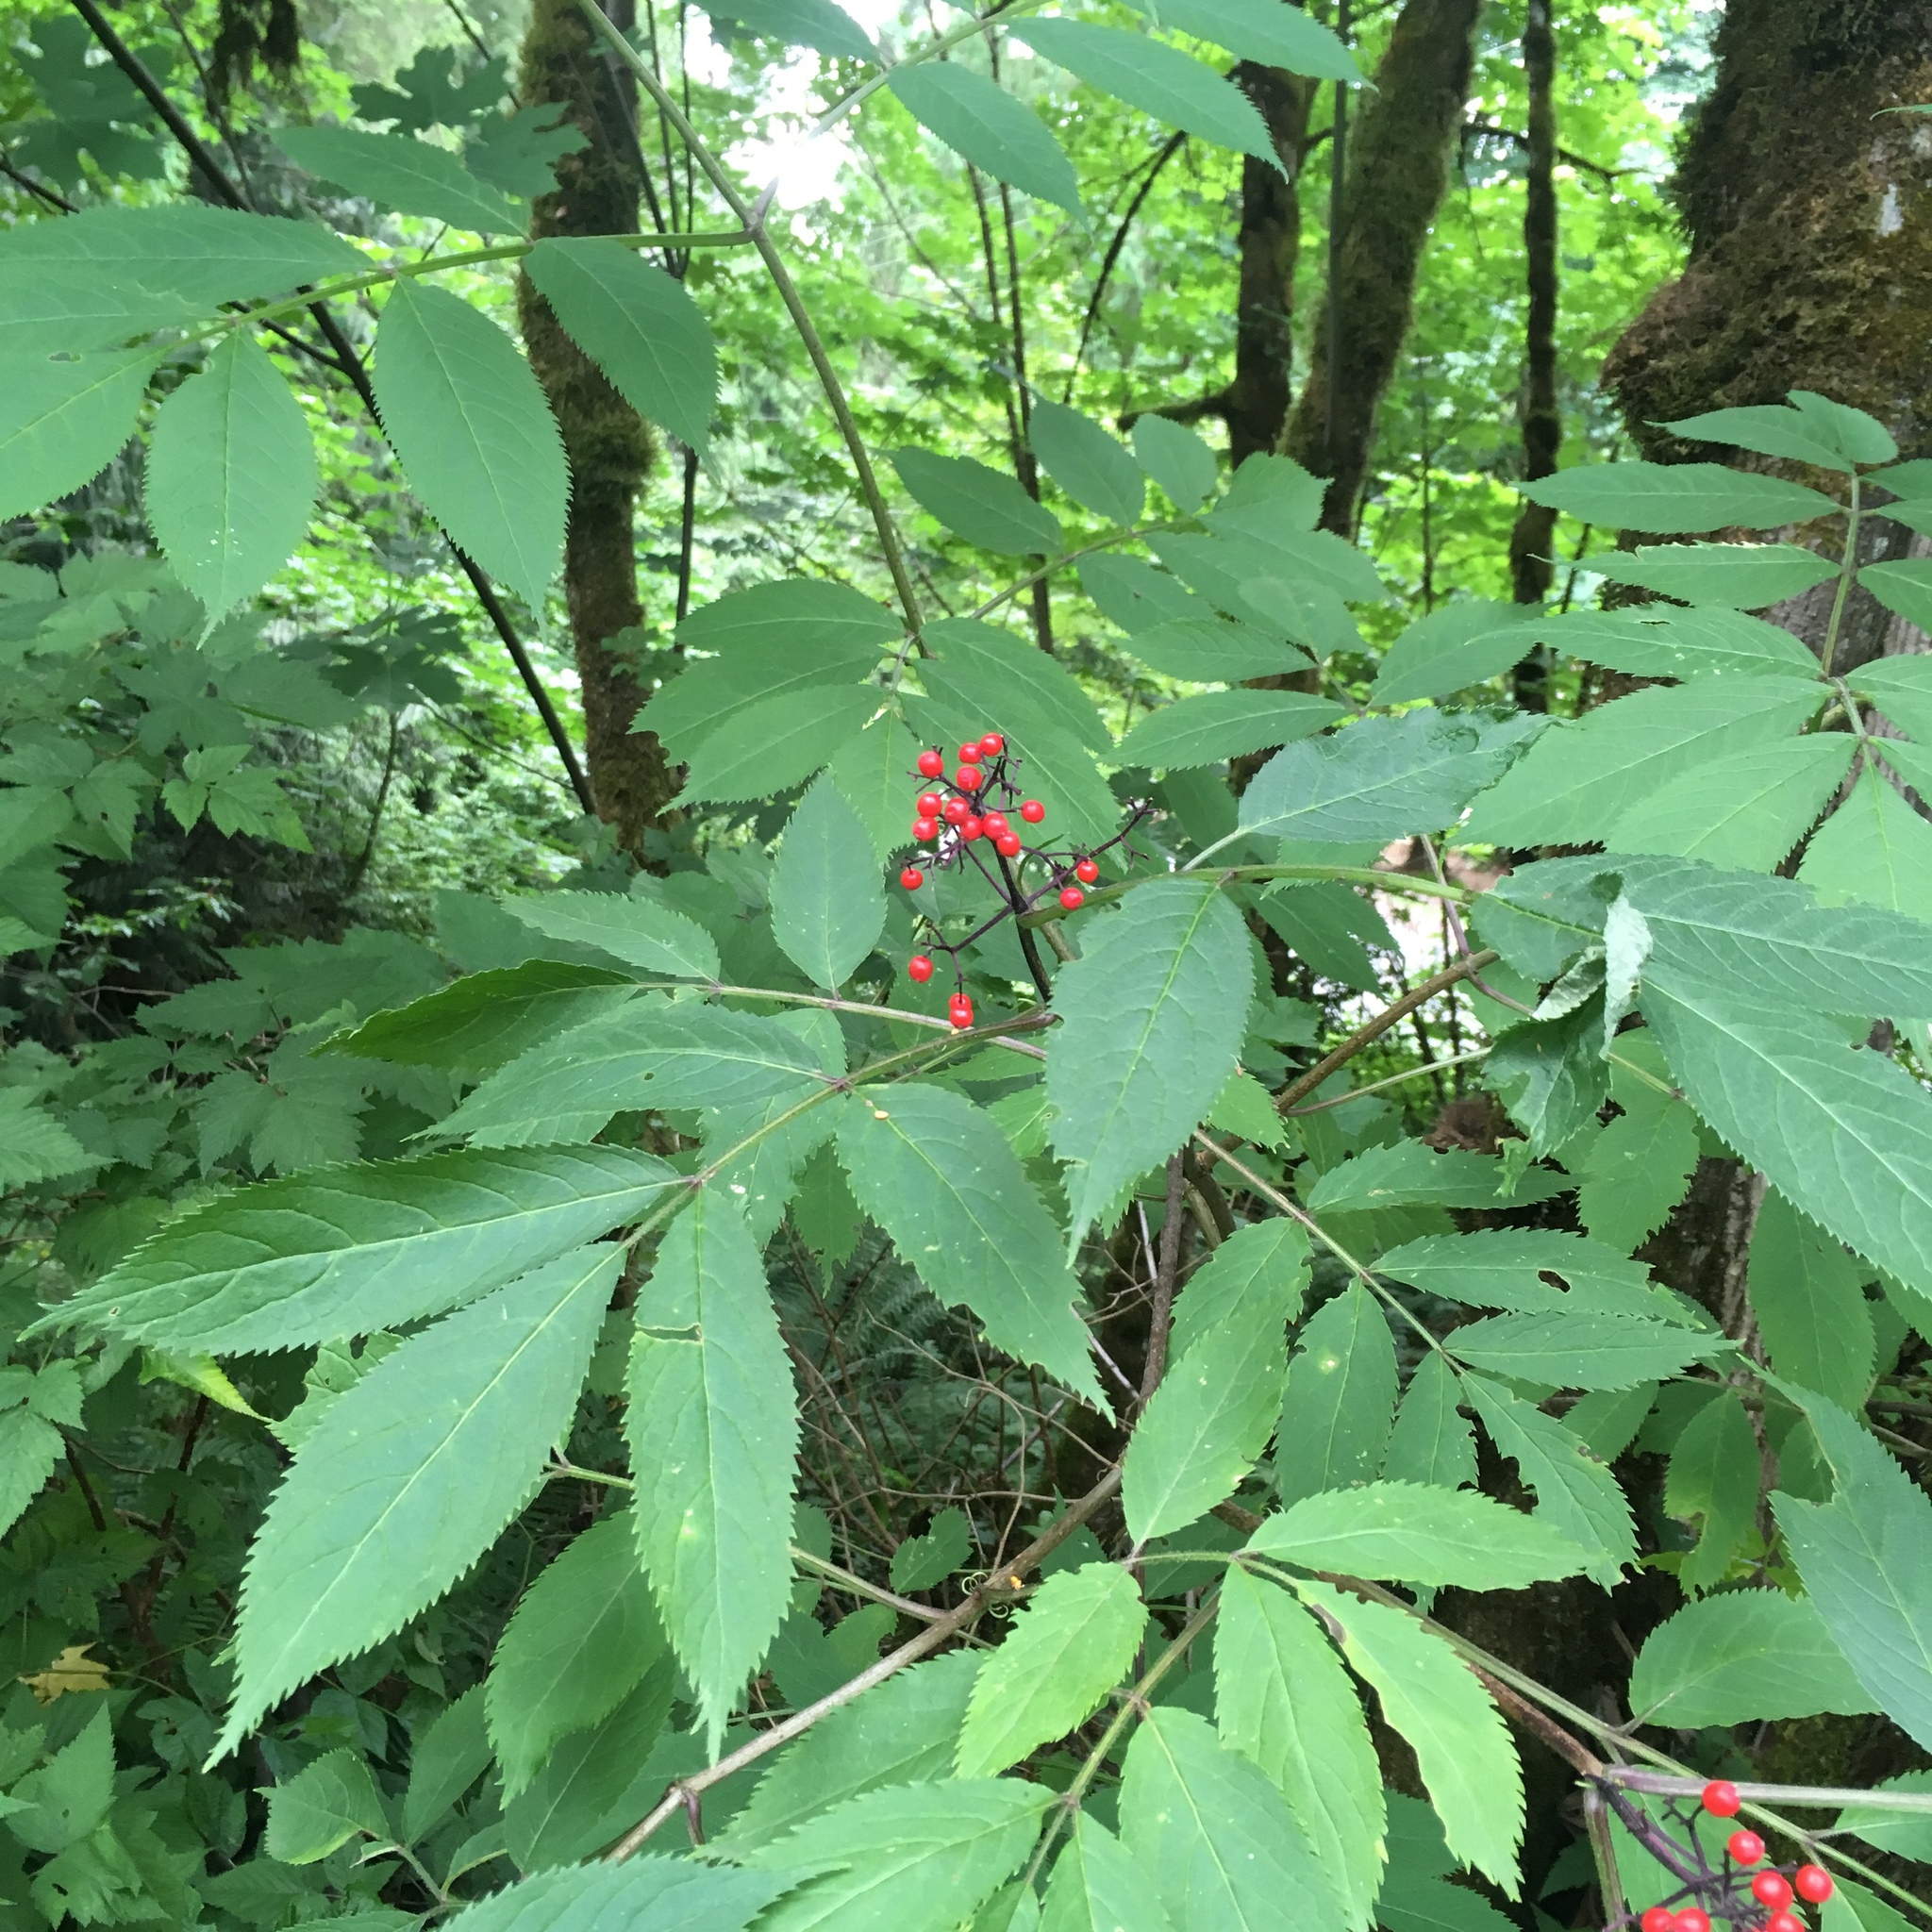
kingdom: Plantae
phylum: Tracheophyta
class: Magnoliopsida
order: Dipsacales
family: Viburnaceae
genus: Sambucus
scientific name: Sambucus racemosa
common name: Red-berried elder
